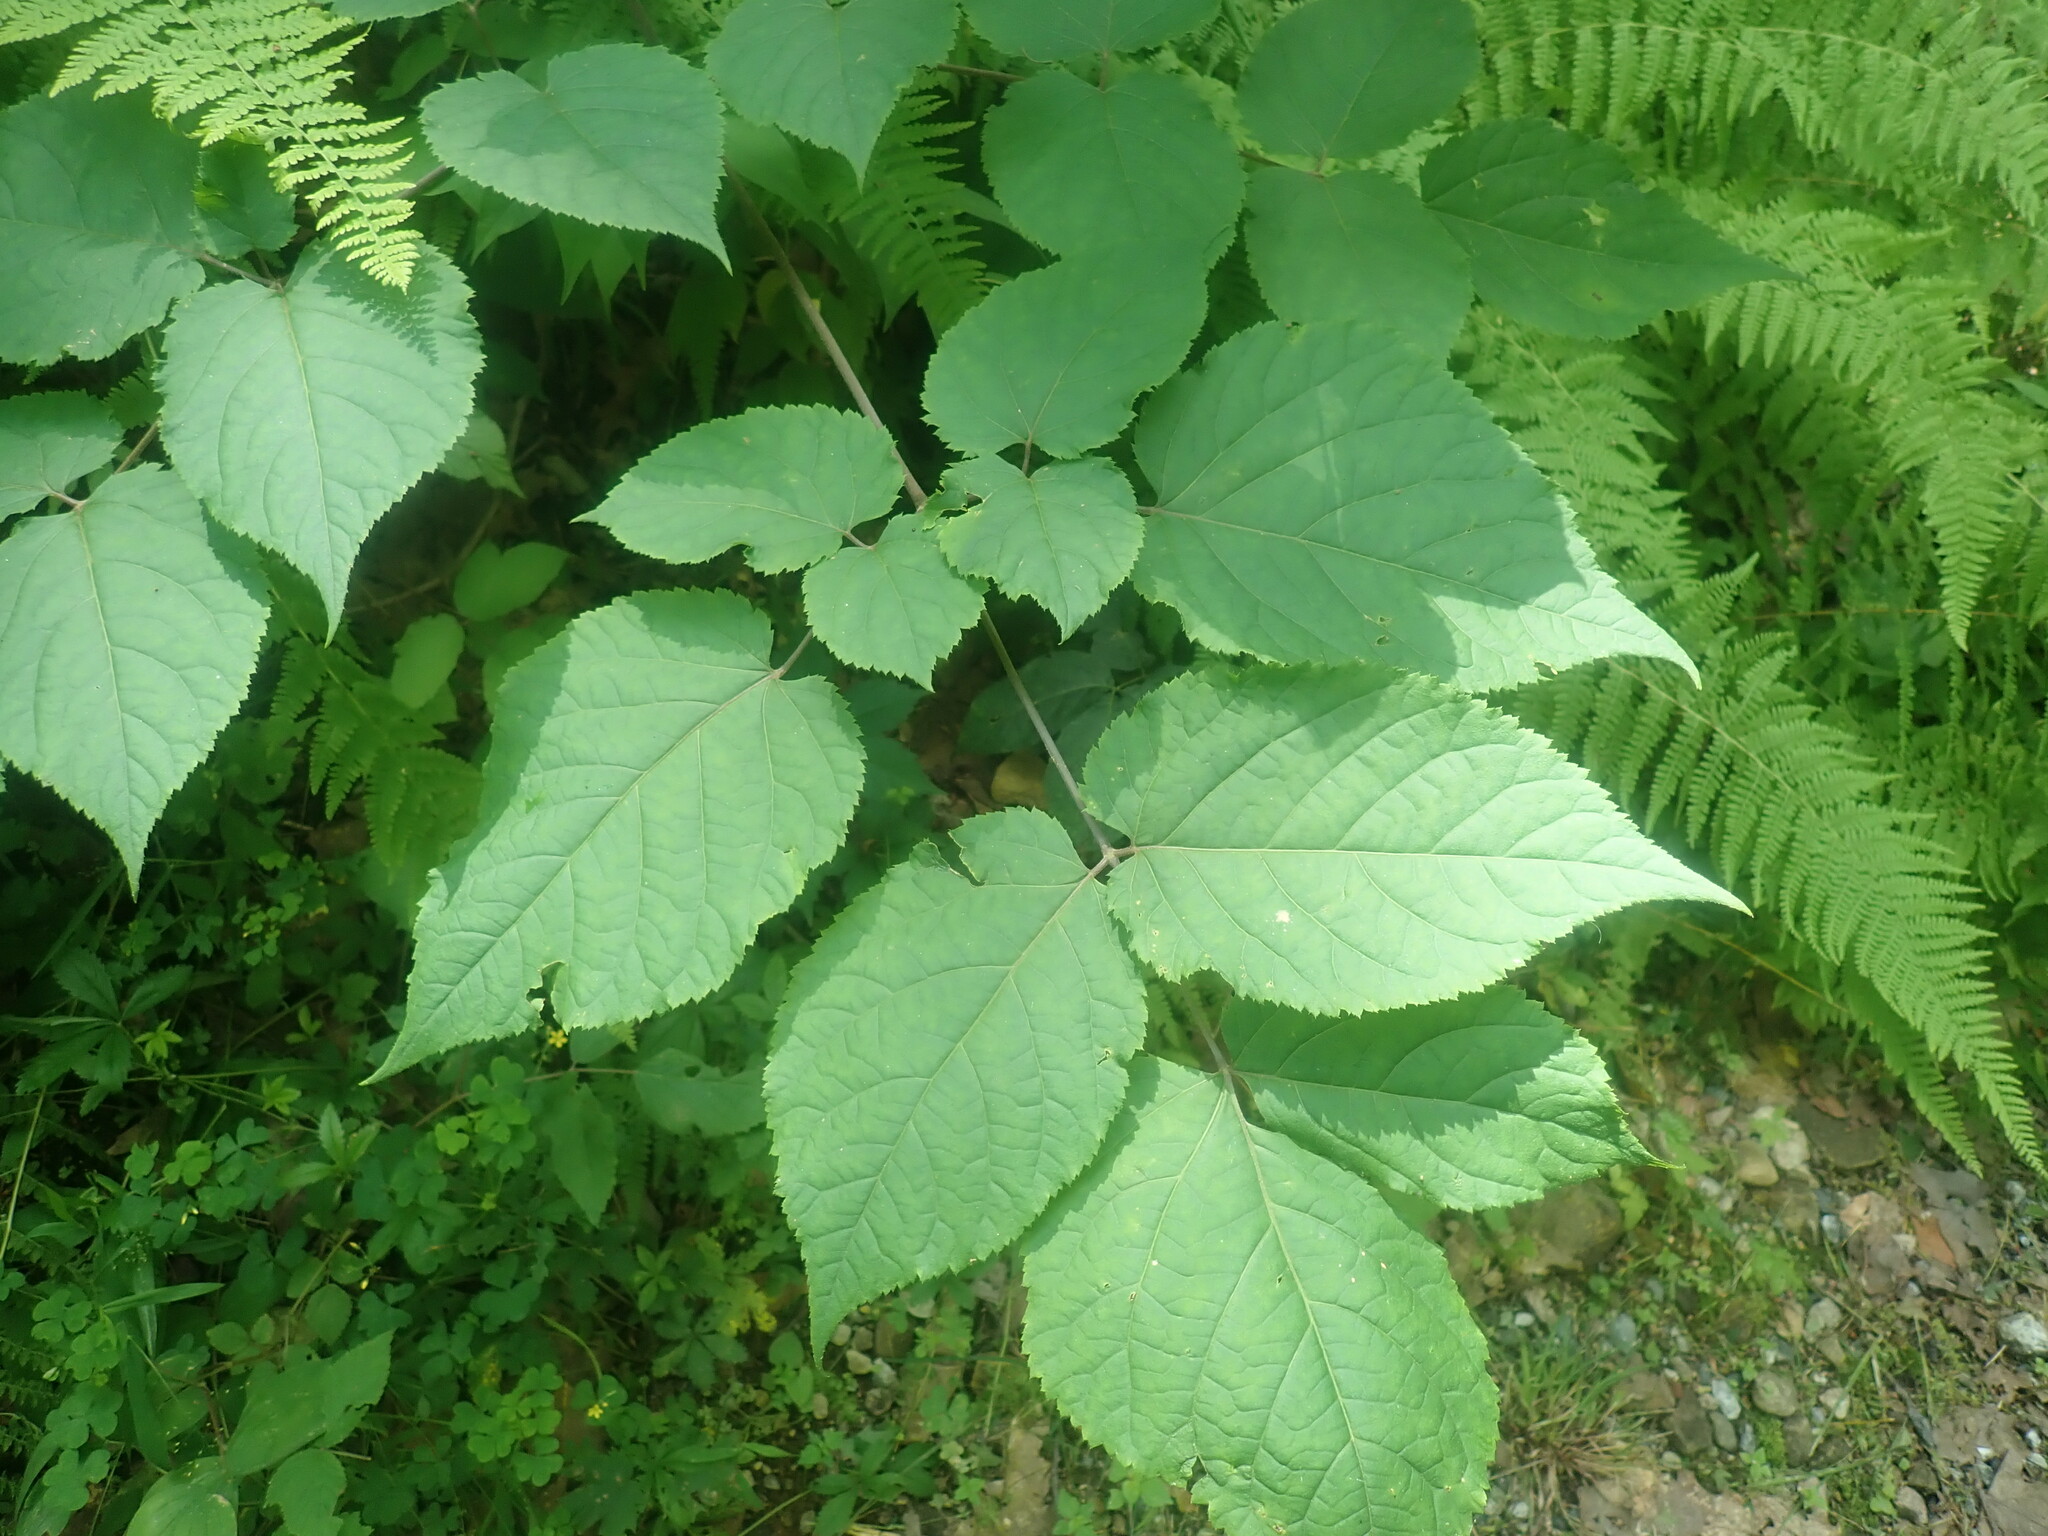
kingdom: Plantae
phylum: Tracheophyta
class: Magnoliopsida
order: Apiales
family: Araliaceae
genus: Aralia
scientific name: Aralia racemosa
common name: American-spikenard
